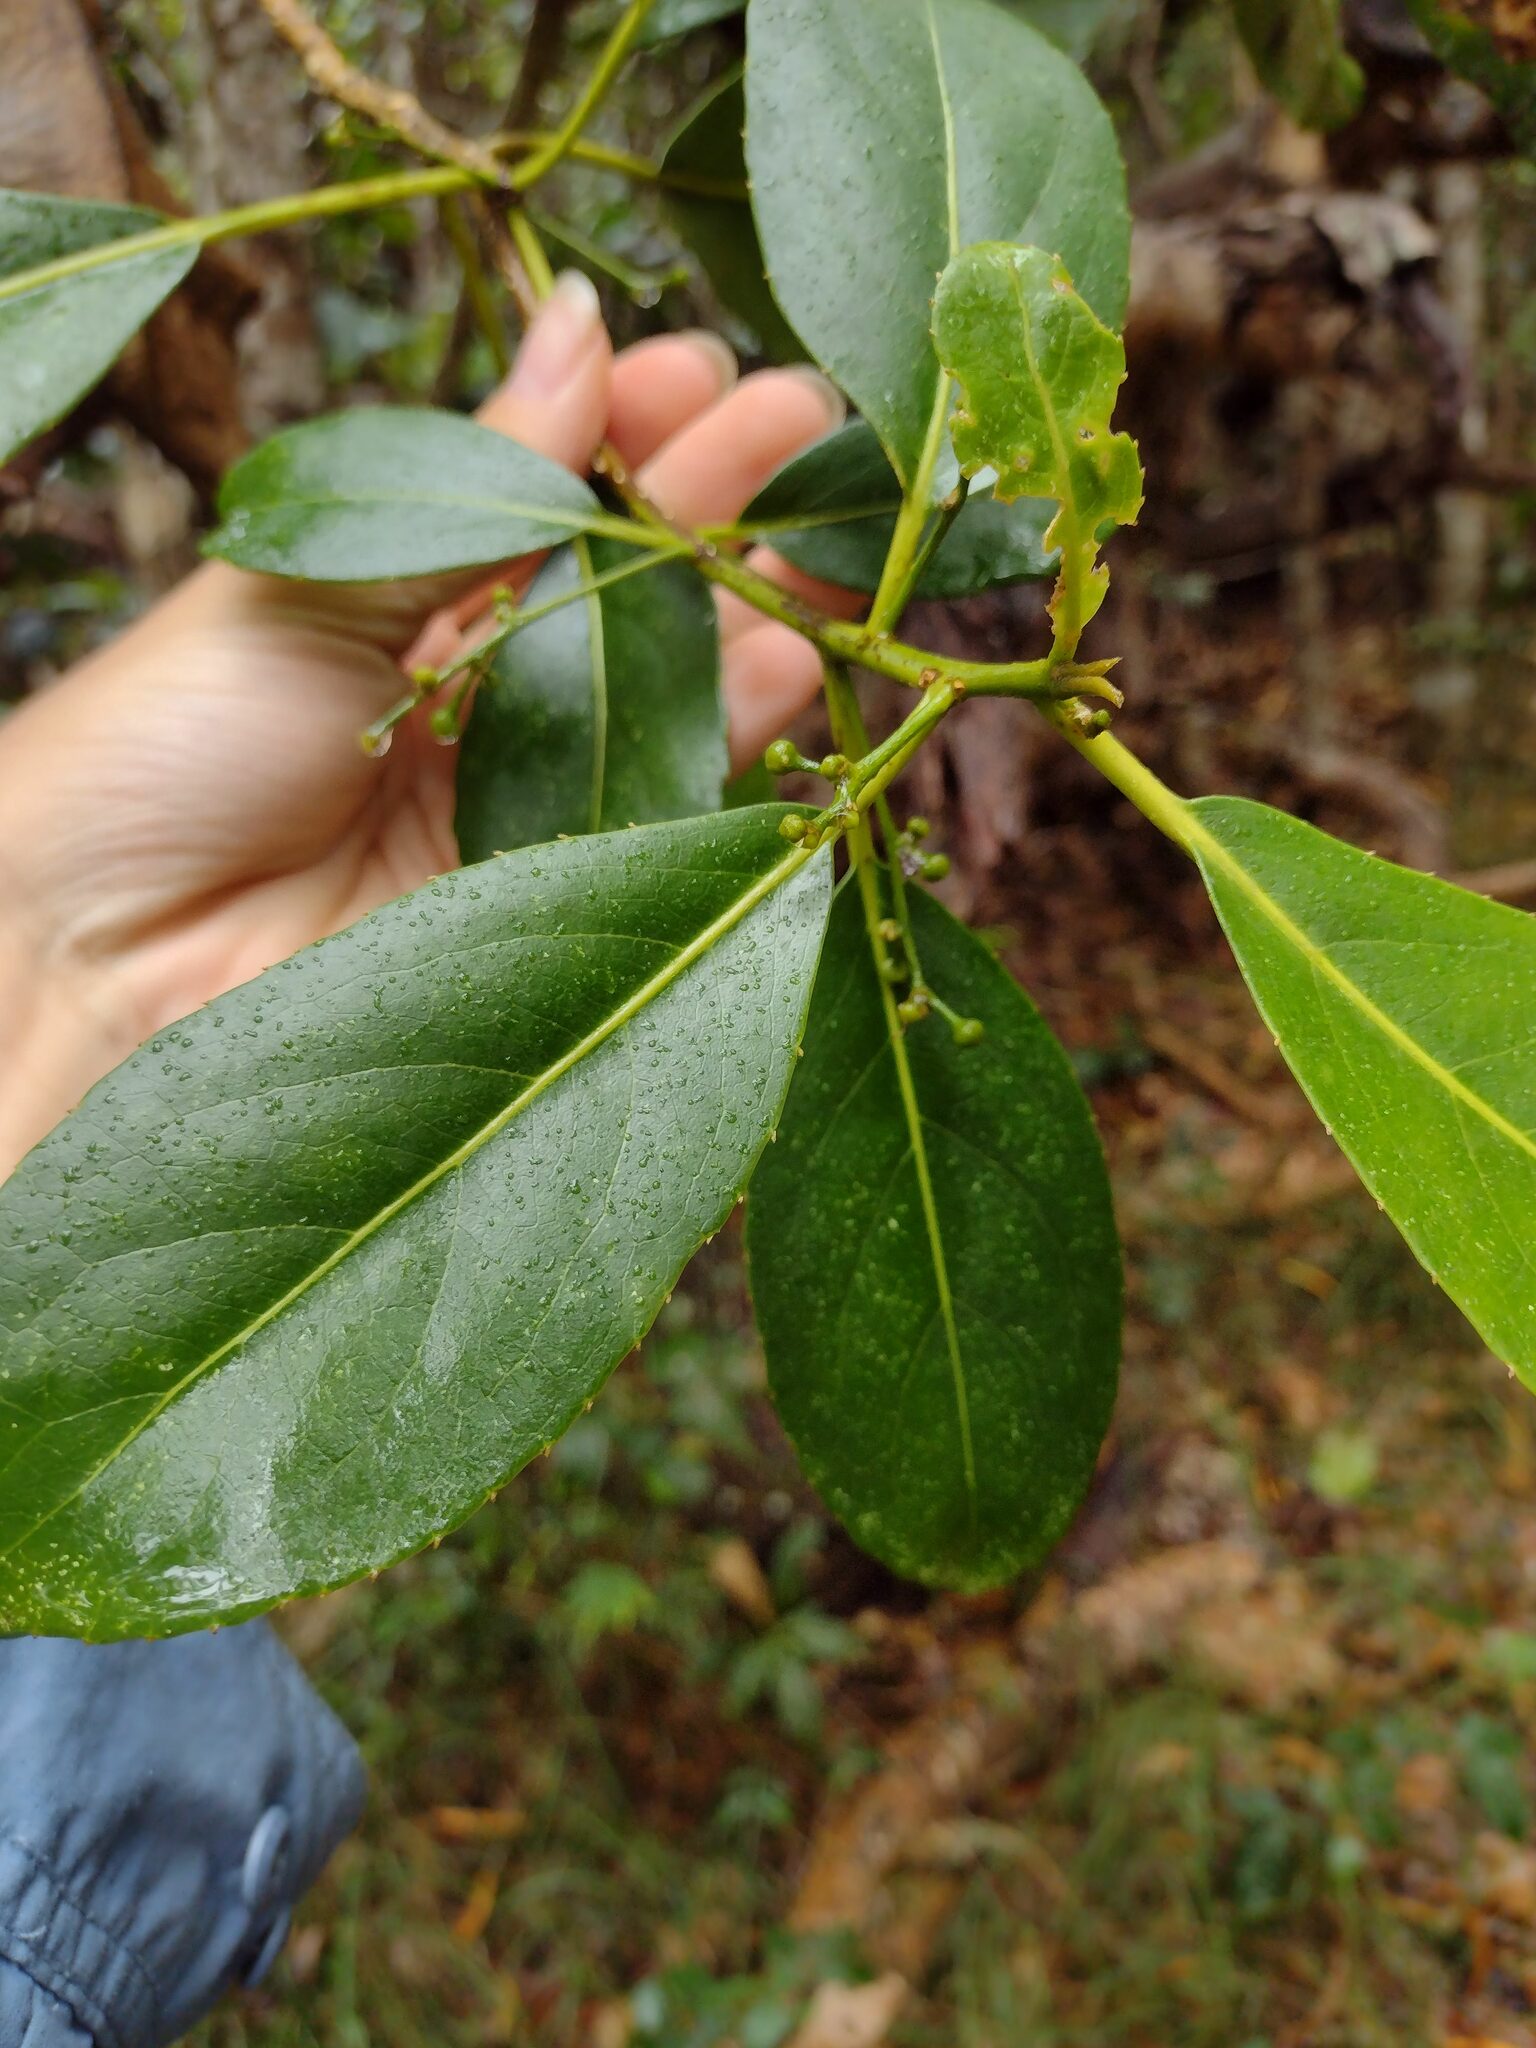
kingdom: Plantae
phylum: Tracheophyta
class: Magnoliopsida
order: Malpighiales
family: Euphorbiaceae
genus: Claoxylon
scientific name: Claoxylon sandwicense
